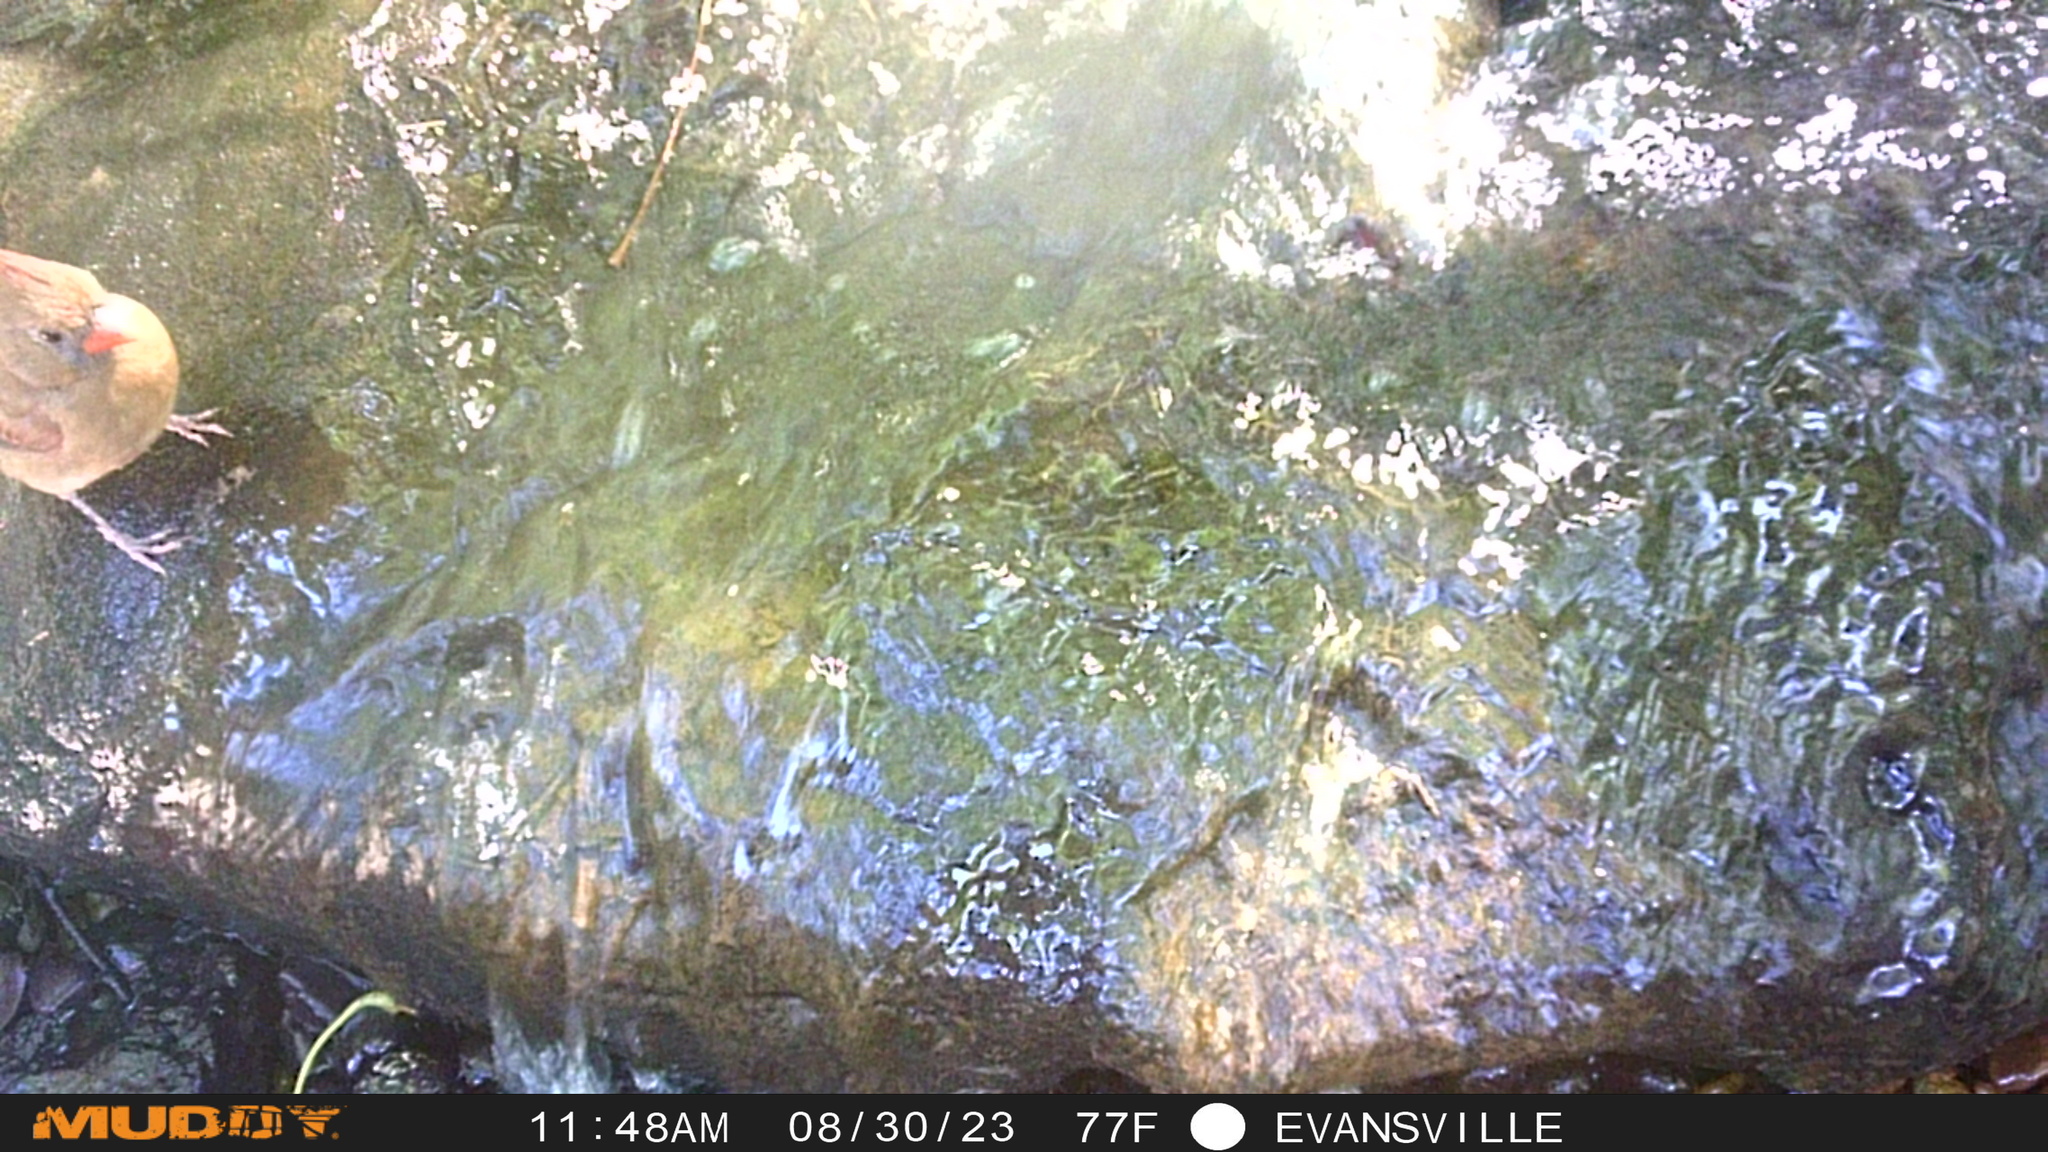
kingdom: Animalia
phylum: Chordata
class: Aves
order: Passeriformes
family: Cardinalidae
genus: Cardinalis
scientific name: Cardinalis cardinalis
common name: Northern cardinal
